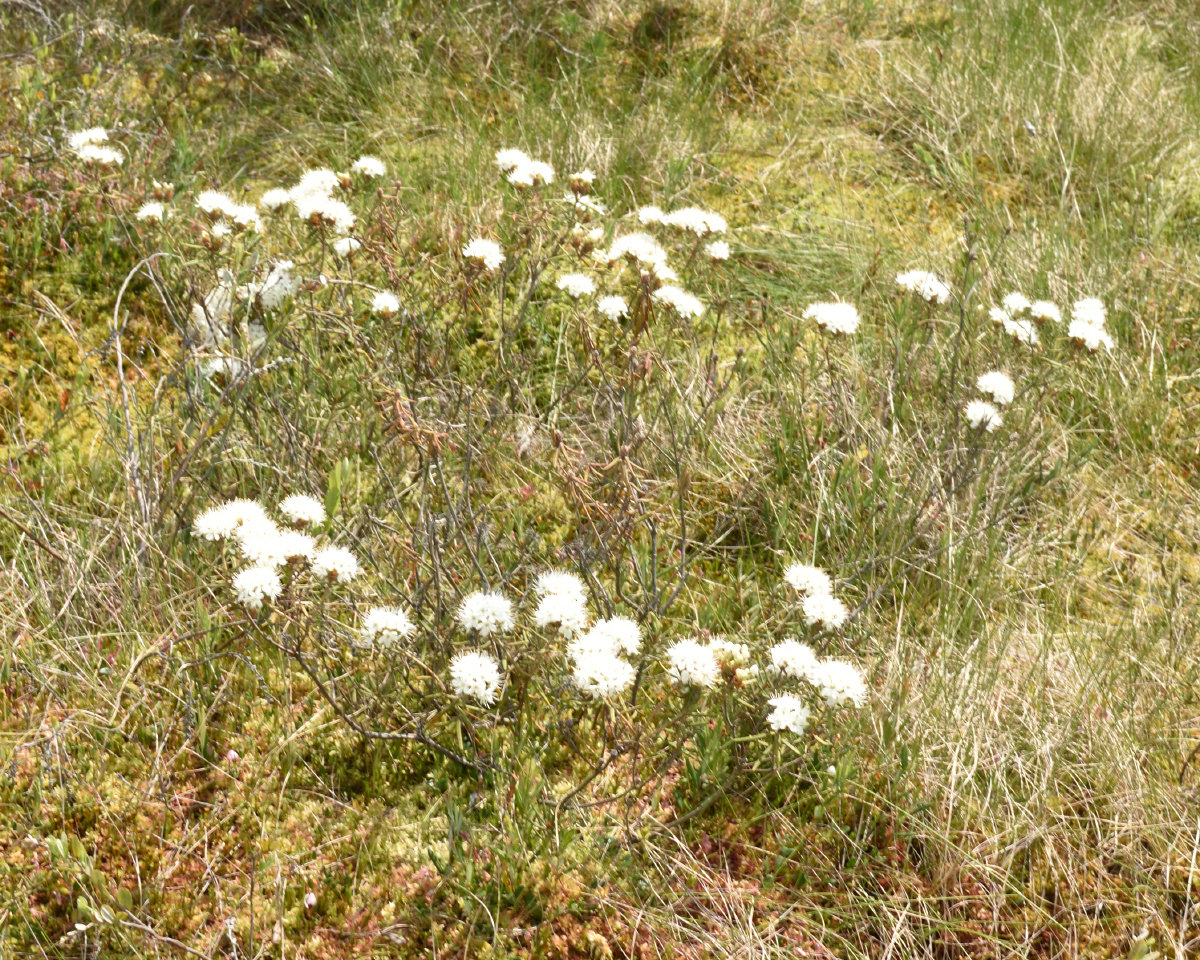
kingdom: Plantae
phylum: Tracheophyta
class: Magnoliopsida
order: Ericales
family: Ericaceae
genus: Rhododendron
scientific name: Rhododendron tomentosum
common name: Marsh labrador tea
